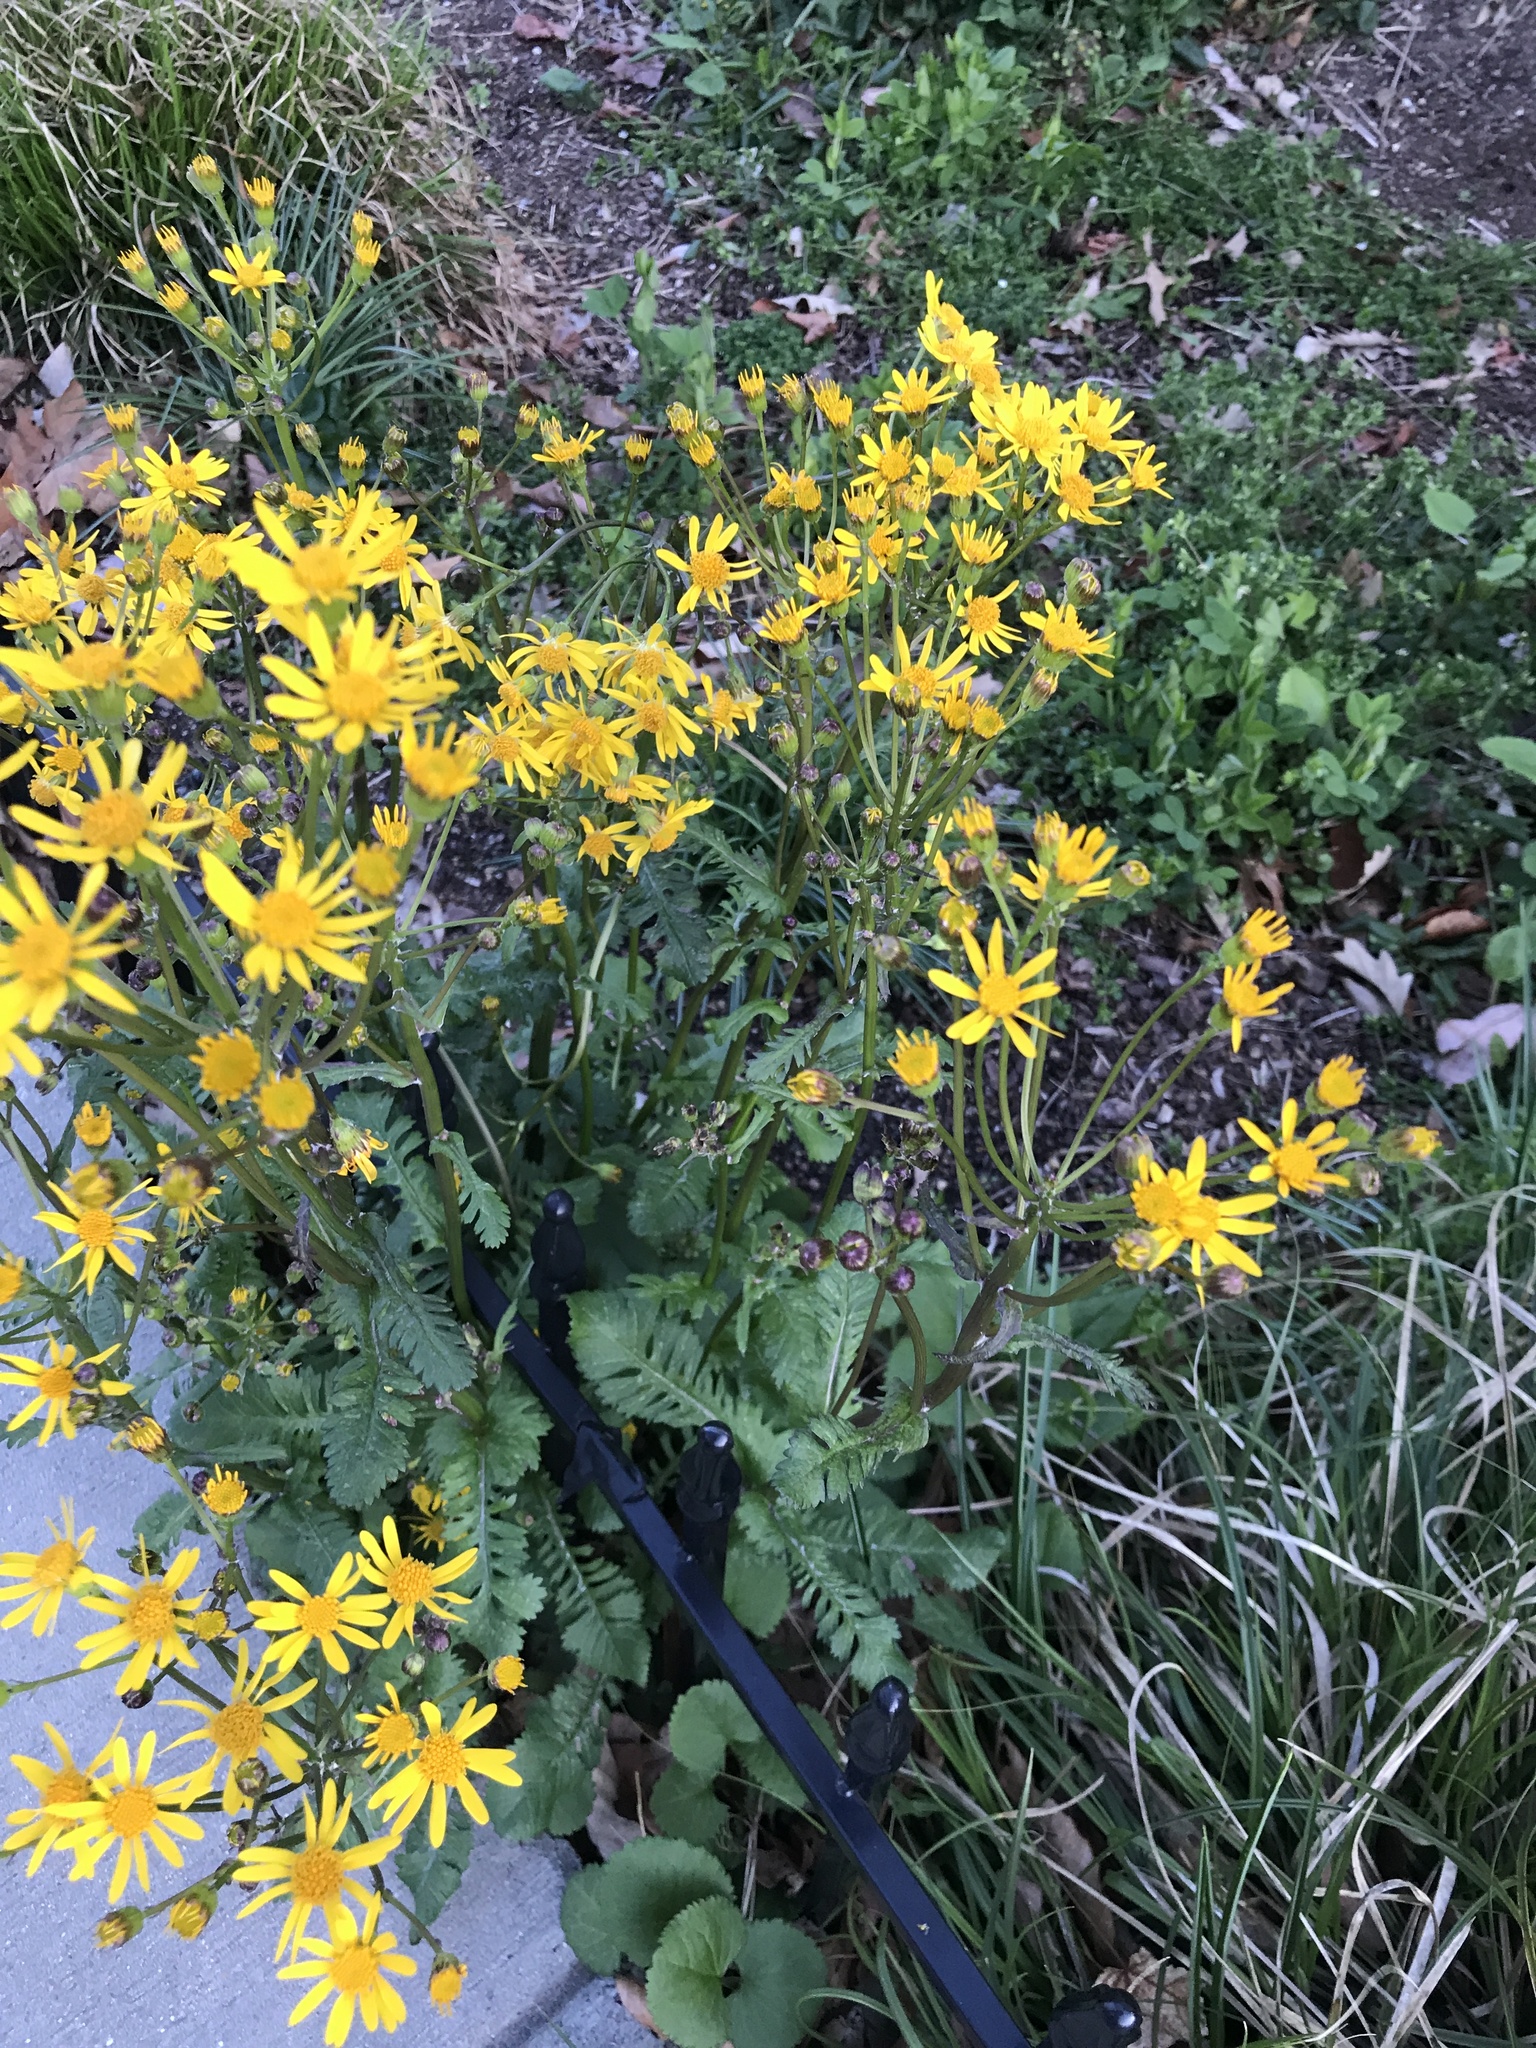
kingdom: Plantae
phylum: Tracheophyta
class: Magnoliopsida
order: Asterales
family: Asteraceae
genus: Packera
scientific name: Packera aurea
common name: Golden groundsel
